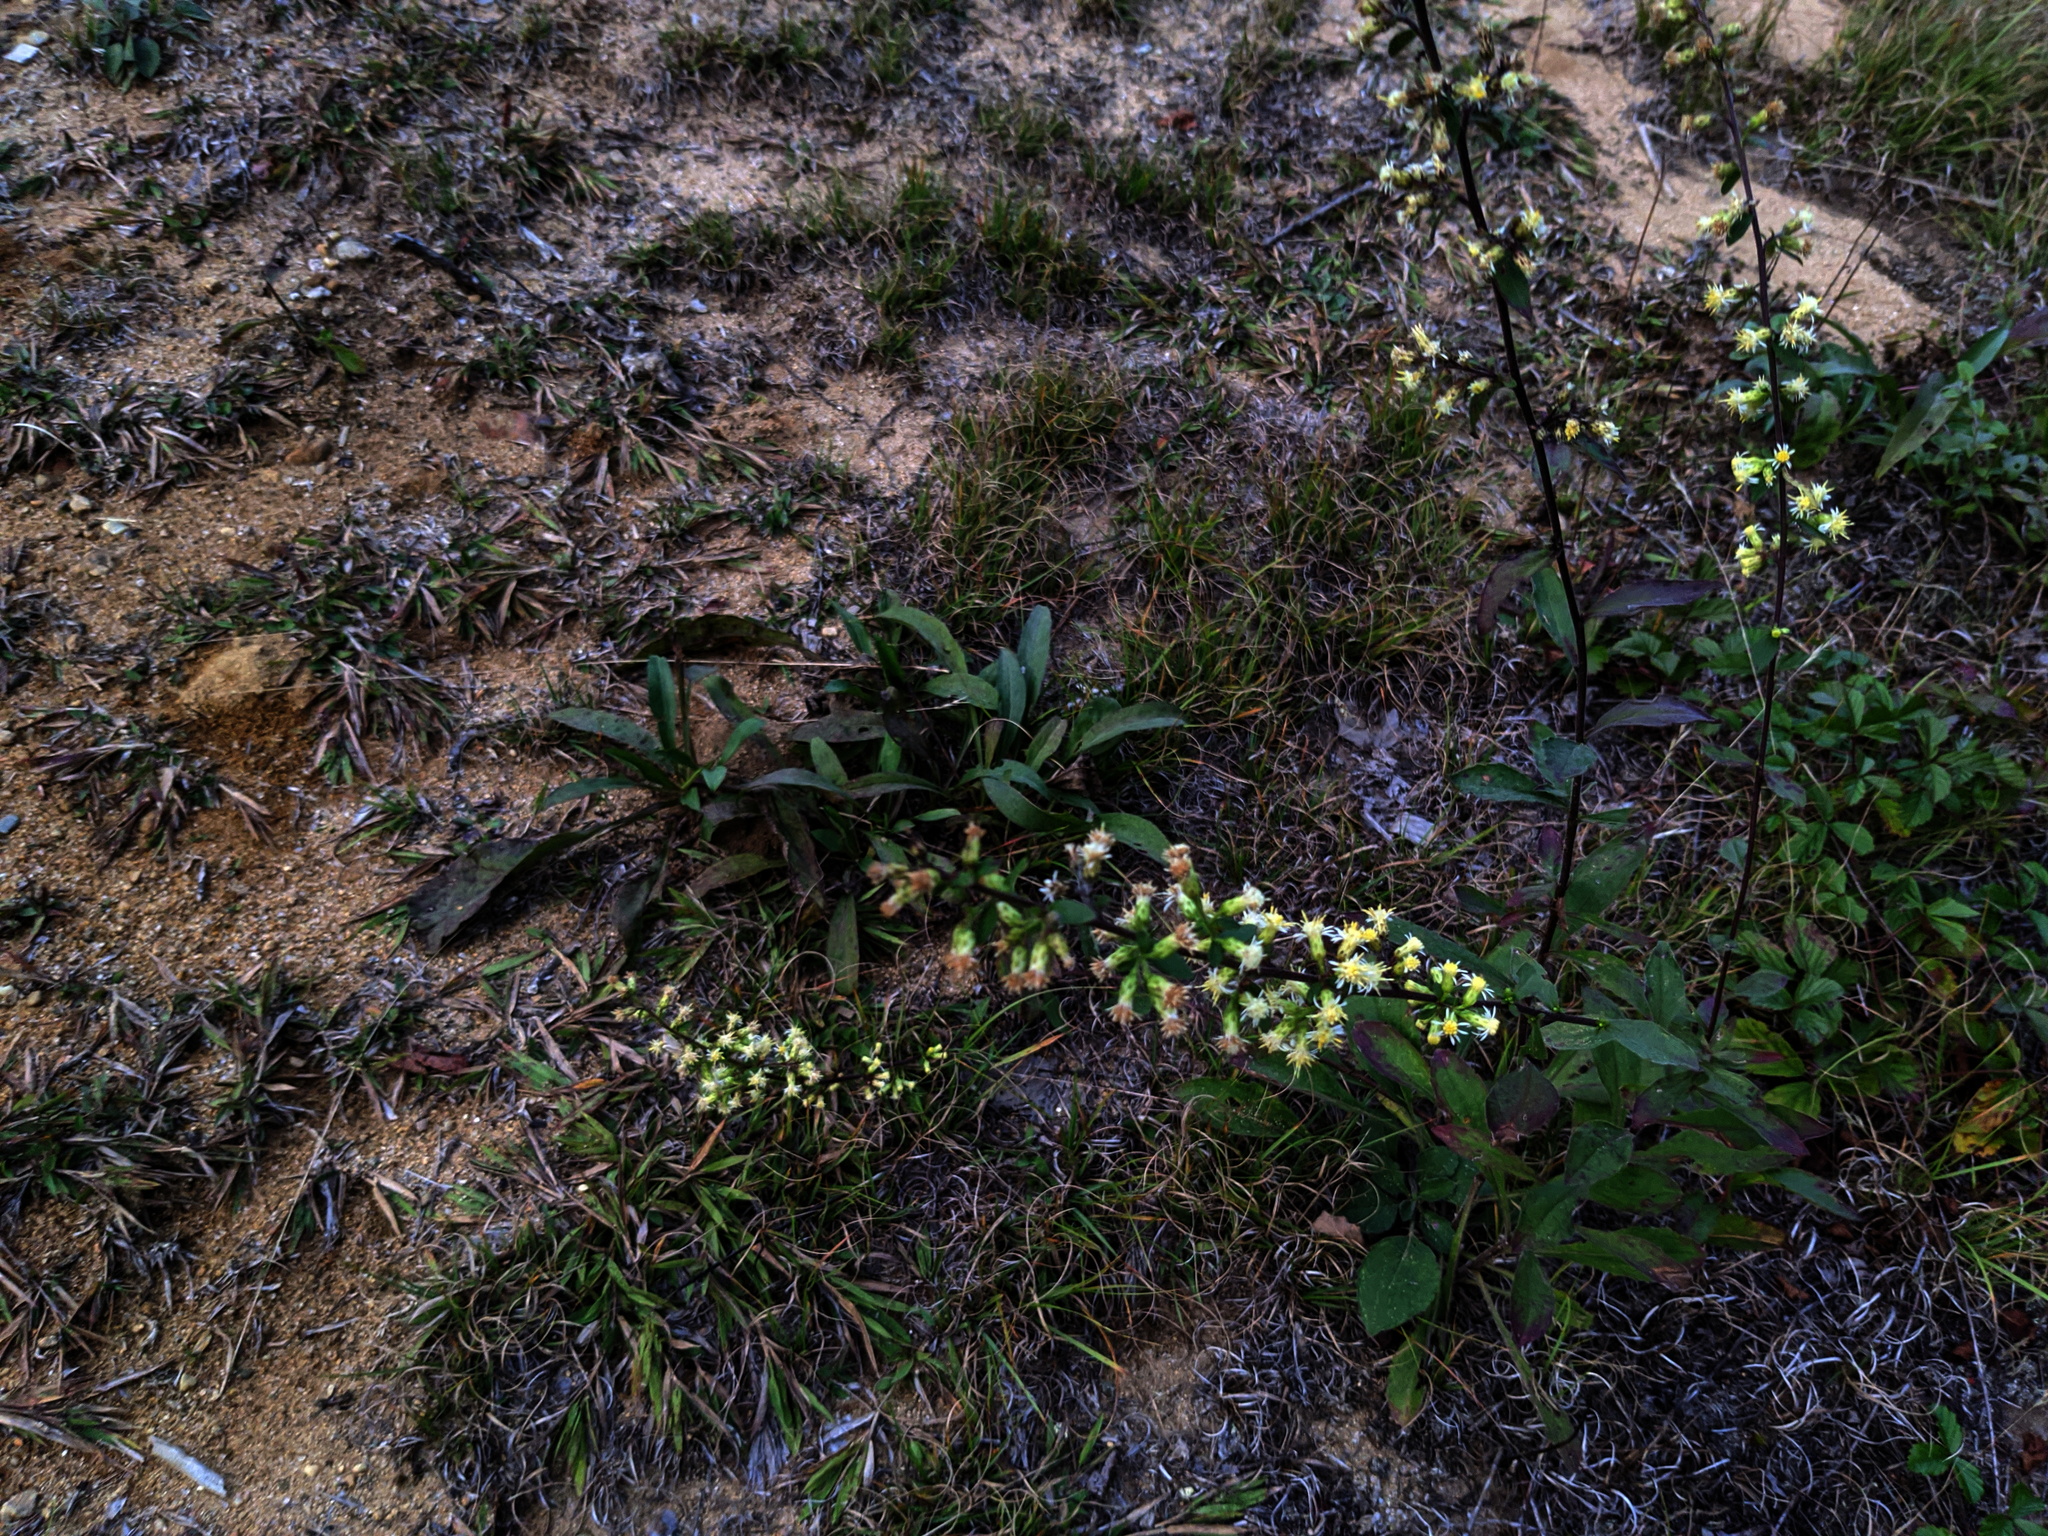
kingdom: Plantae
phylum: Tracheophyta
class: Magnoliopsida
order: Asterales
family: Asteraceae
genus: Solidago
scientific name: Solidago bicolor
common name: Silverrod
